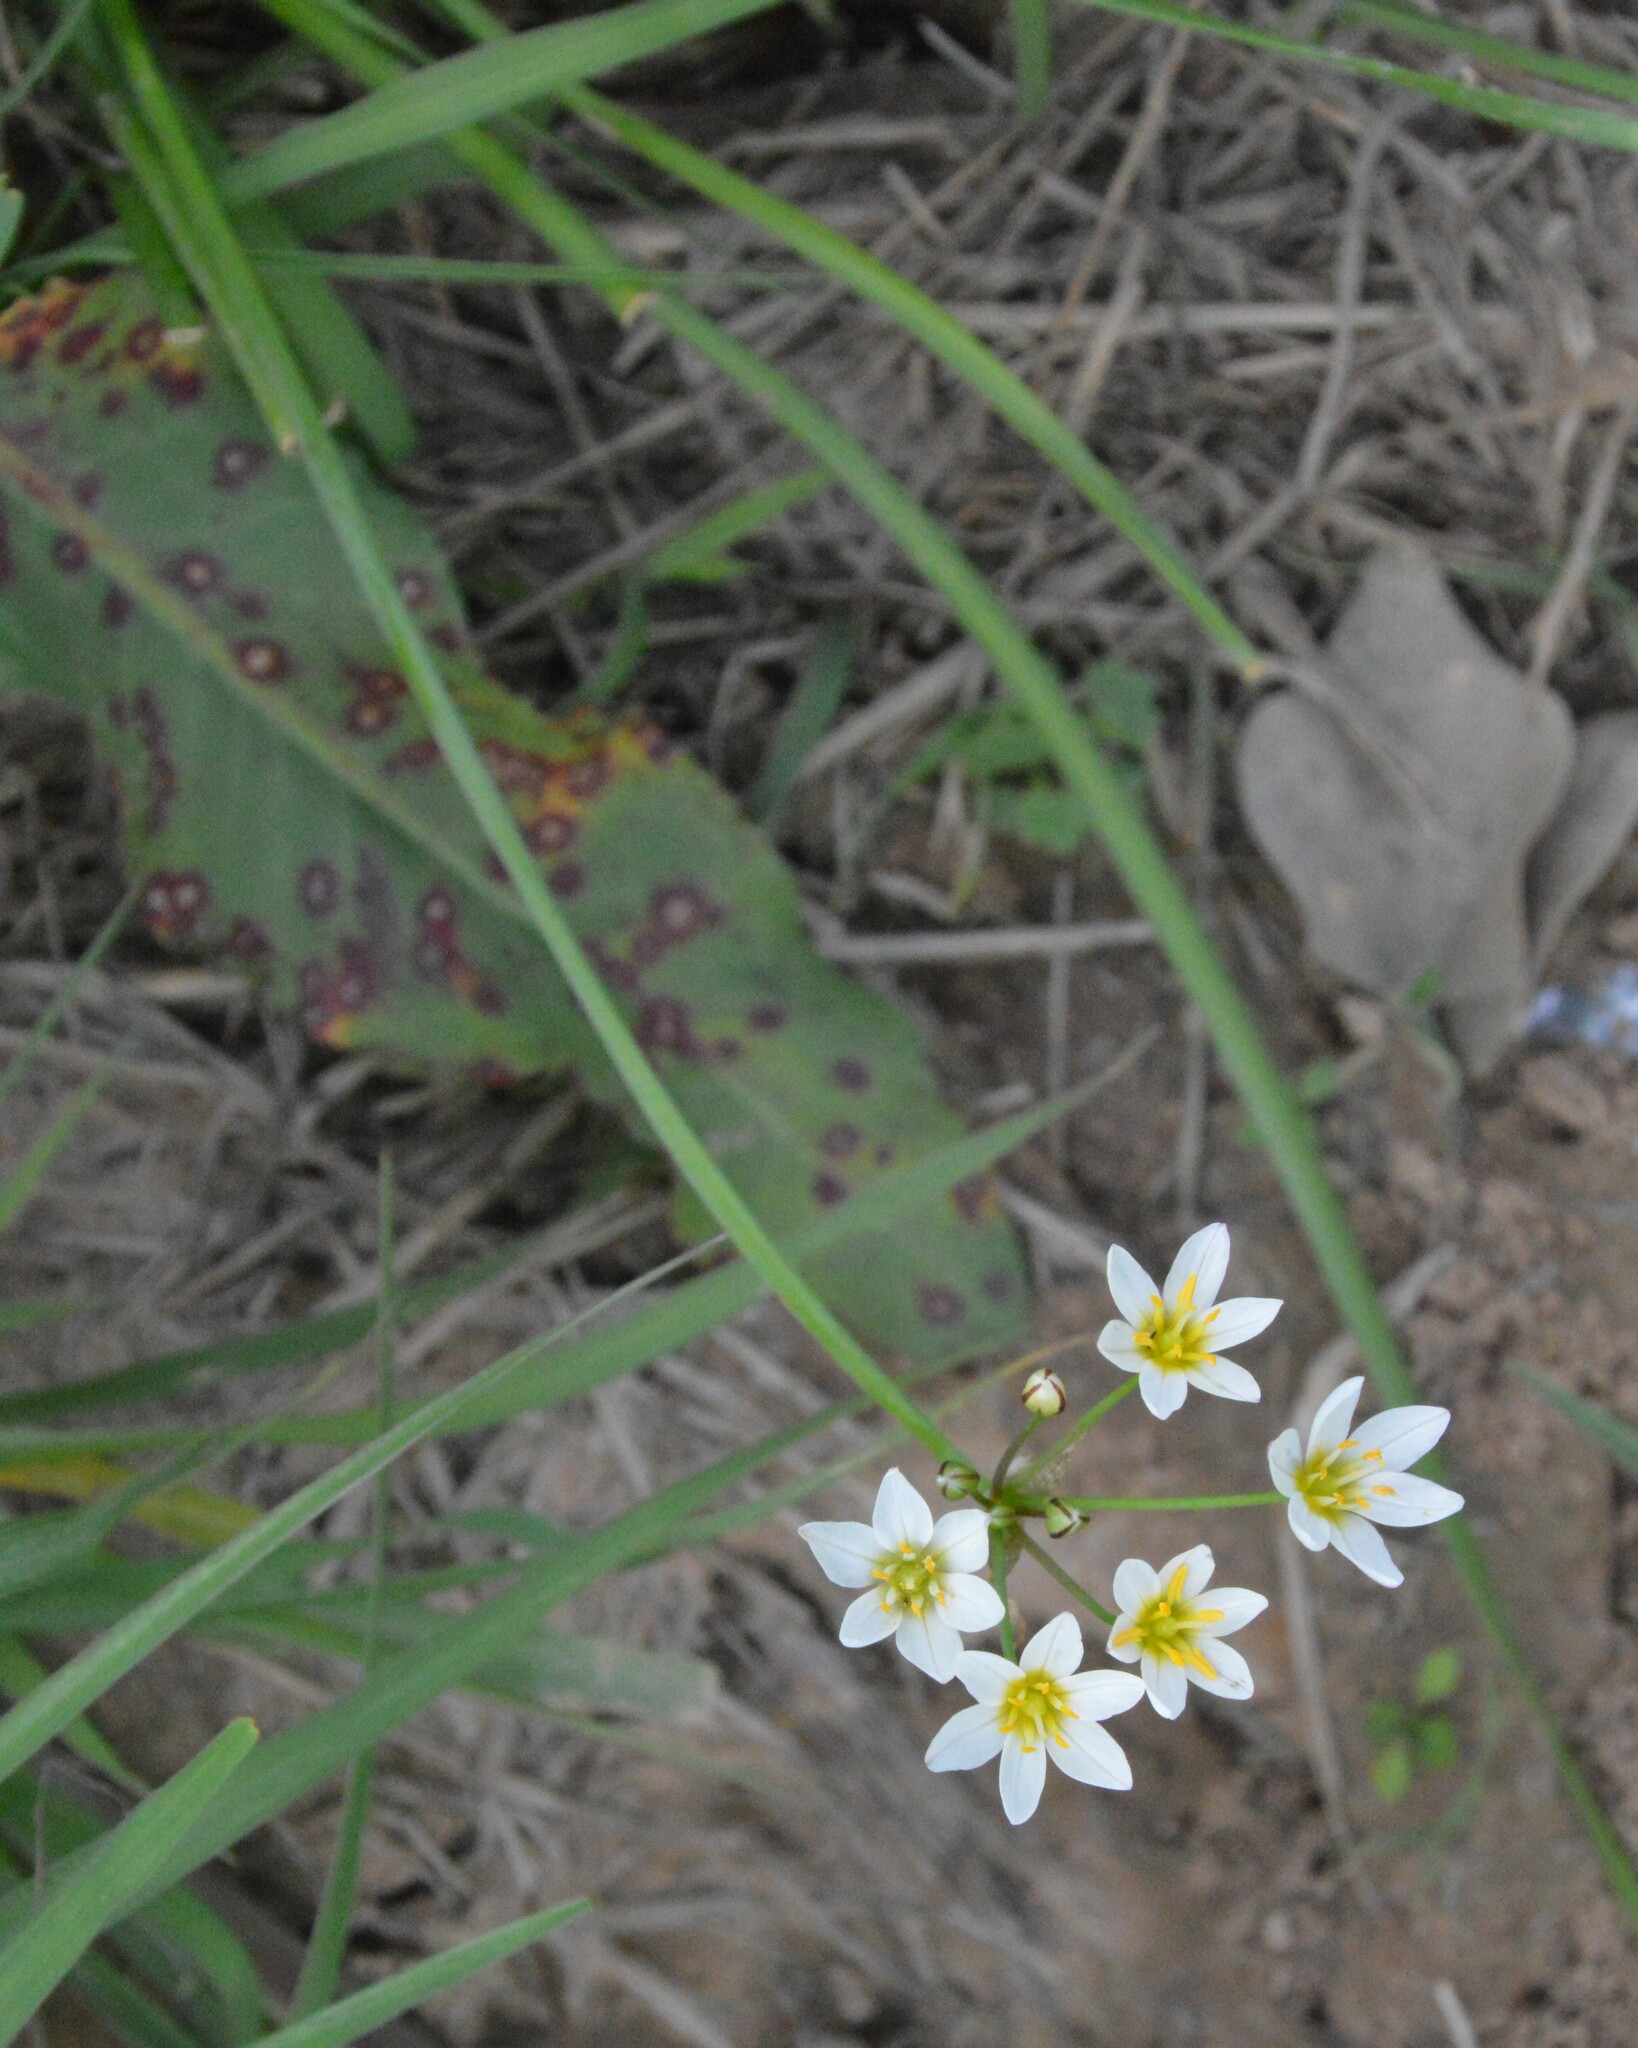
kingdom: Plantae
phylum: Tracheophyta
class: Liliopsida
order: Asparagales
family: Amaryllidaceae
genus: Nothoscordum
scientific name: Nothoscordum bivalve
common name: Crow-poison
